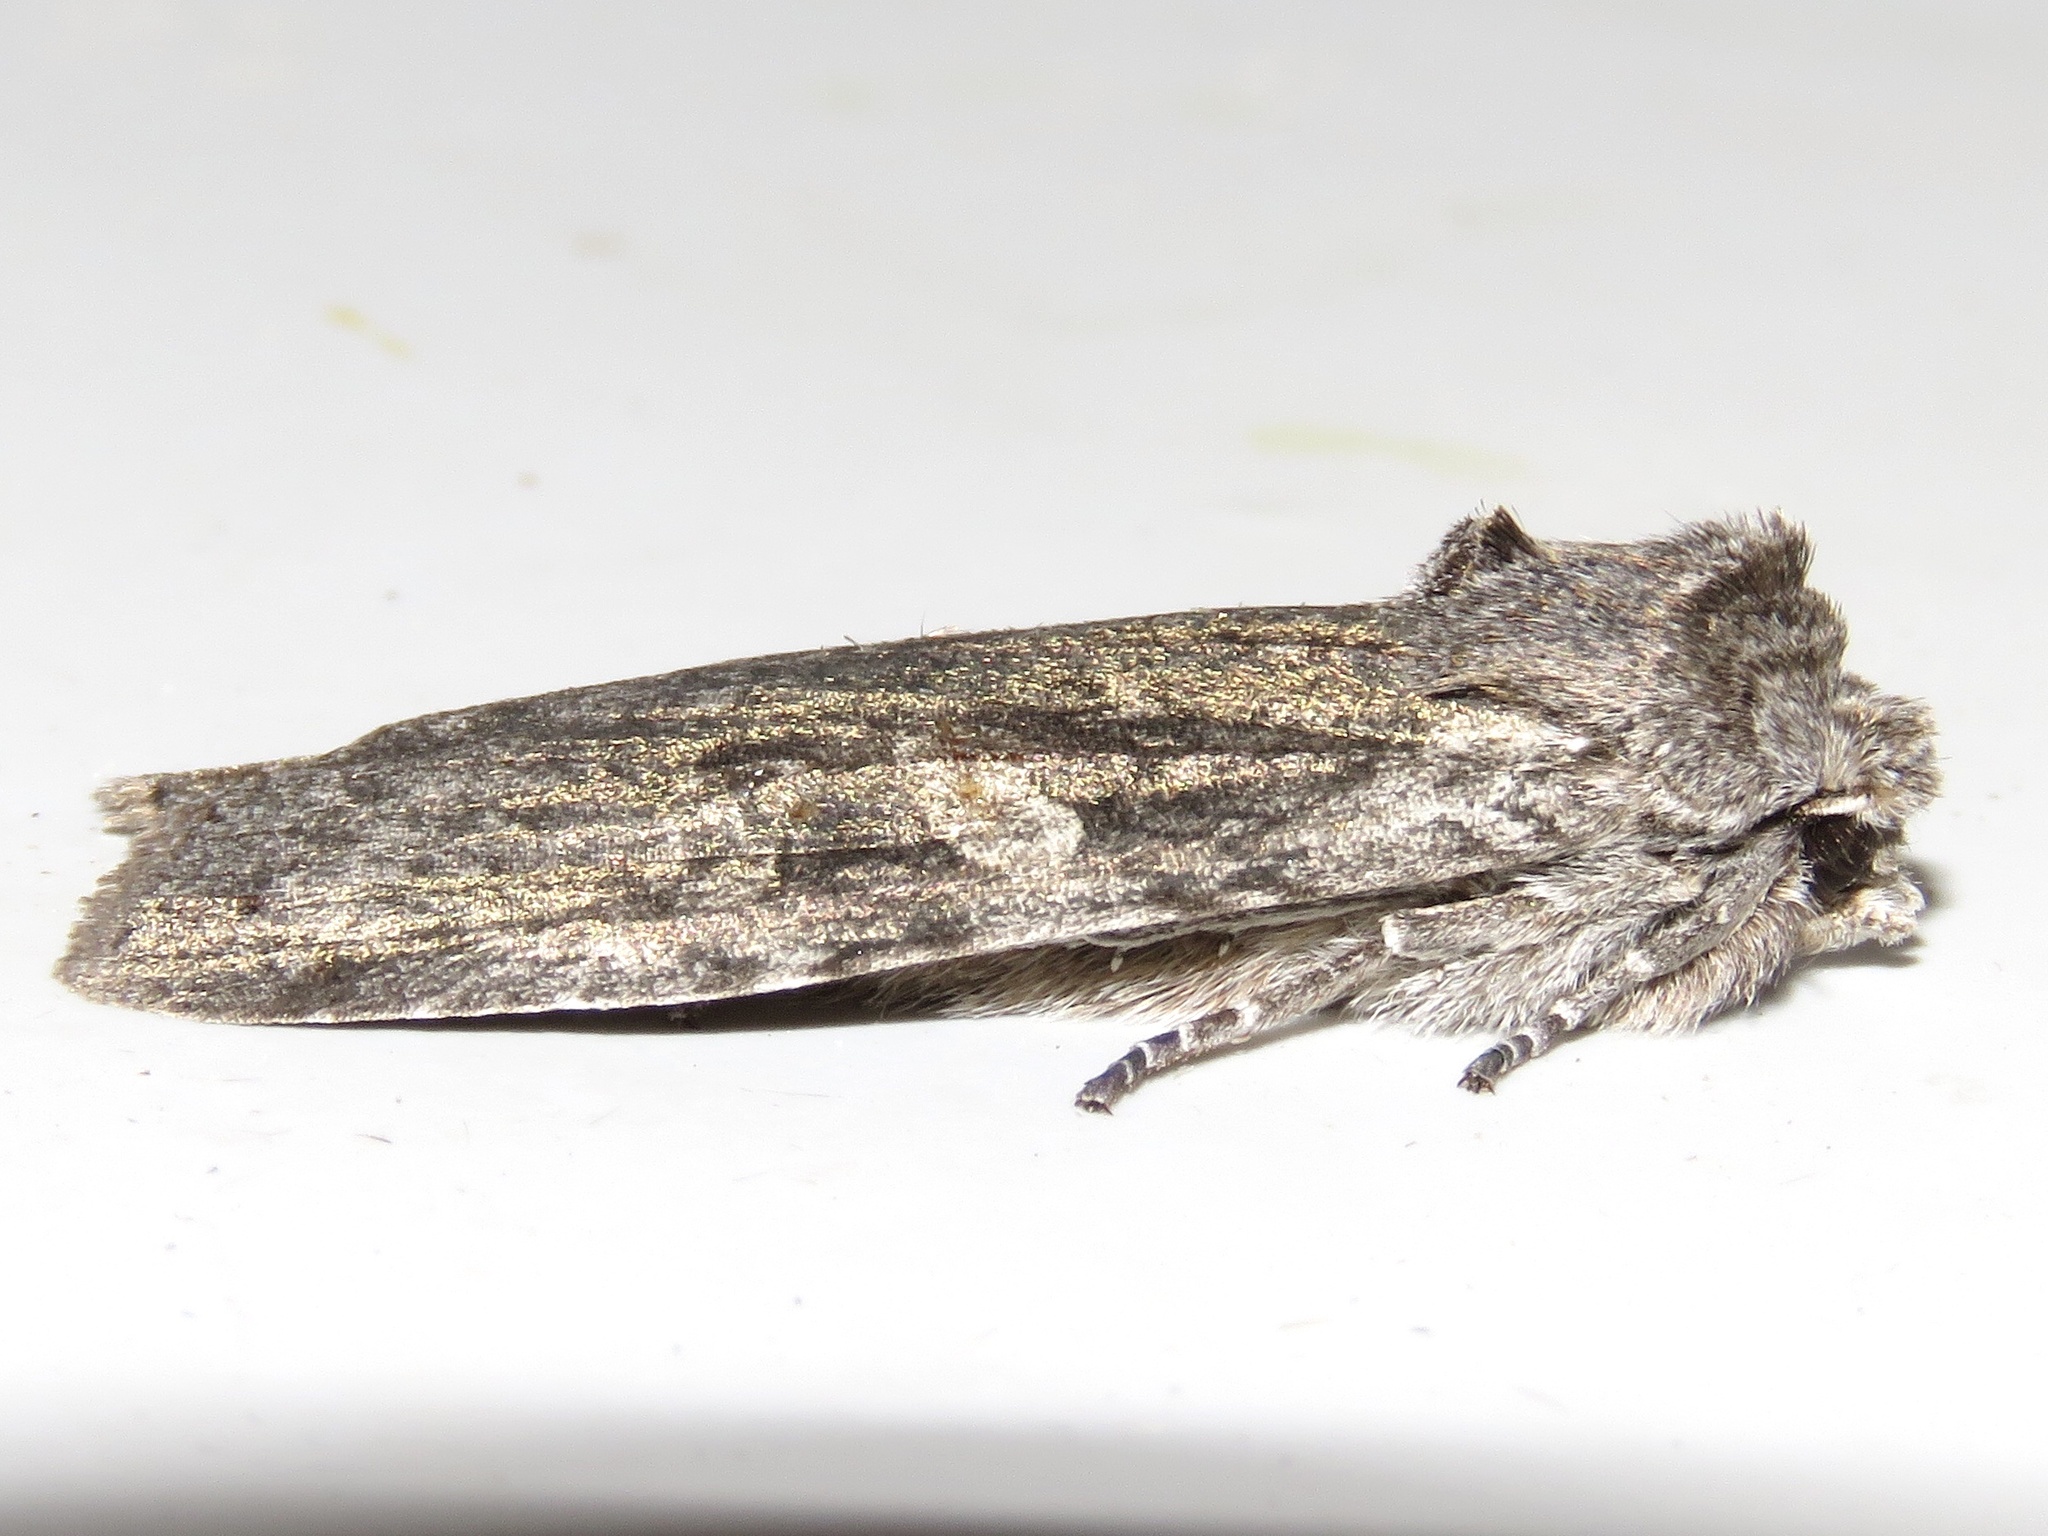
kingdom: Animalia
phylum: Arthropoda
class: Insecta
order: Lepidoptera
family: Noctuidae
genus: Lithophane
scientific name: Lithophane grotei
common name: Grote's pinion moth
